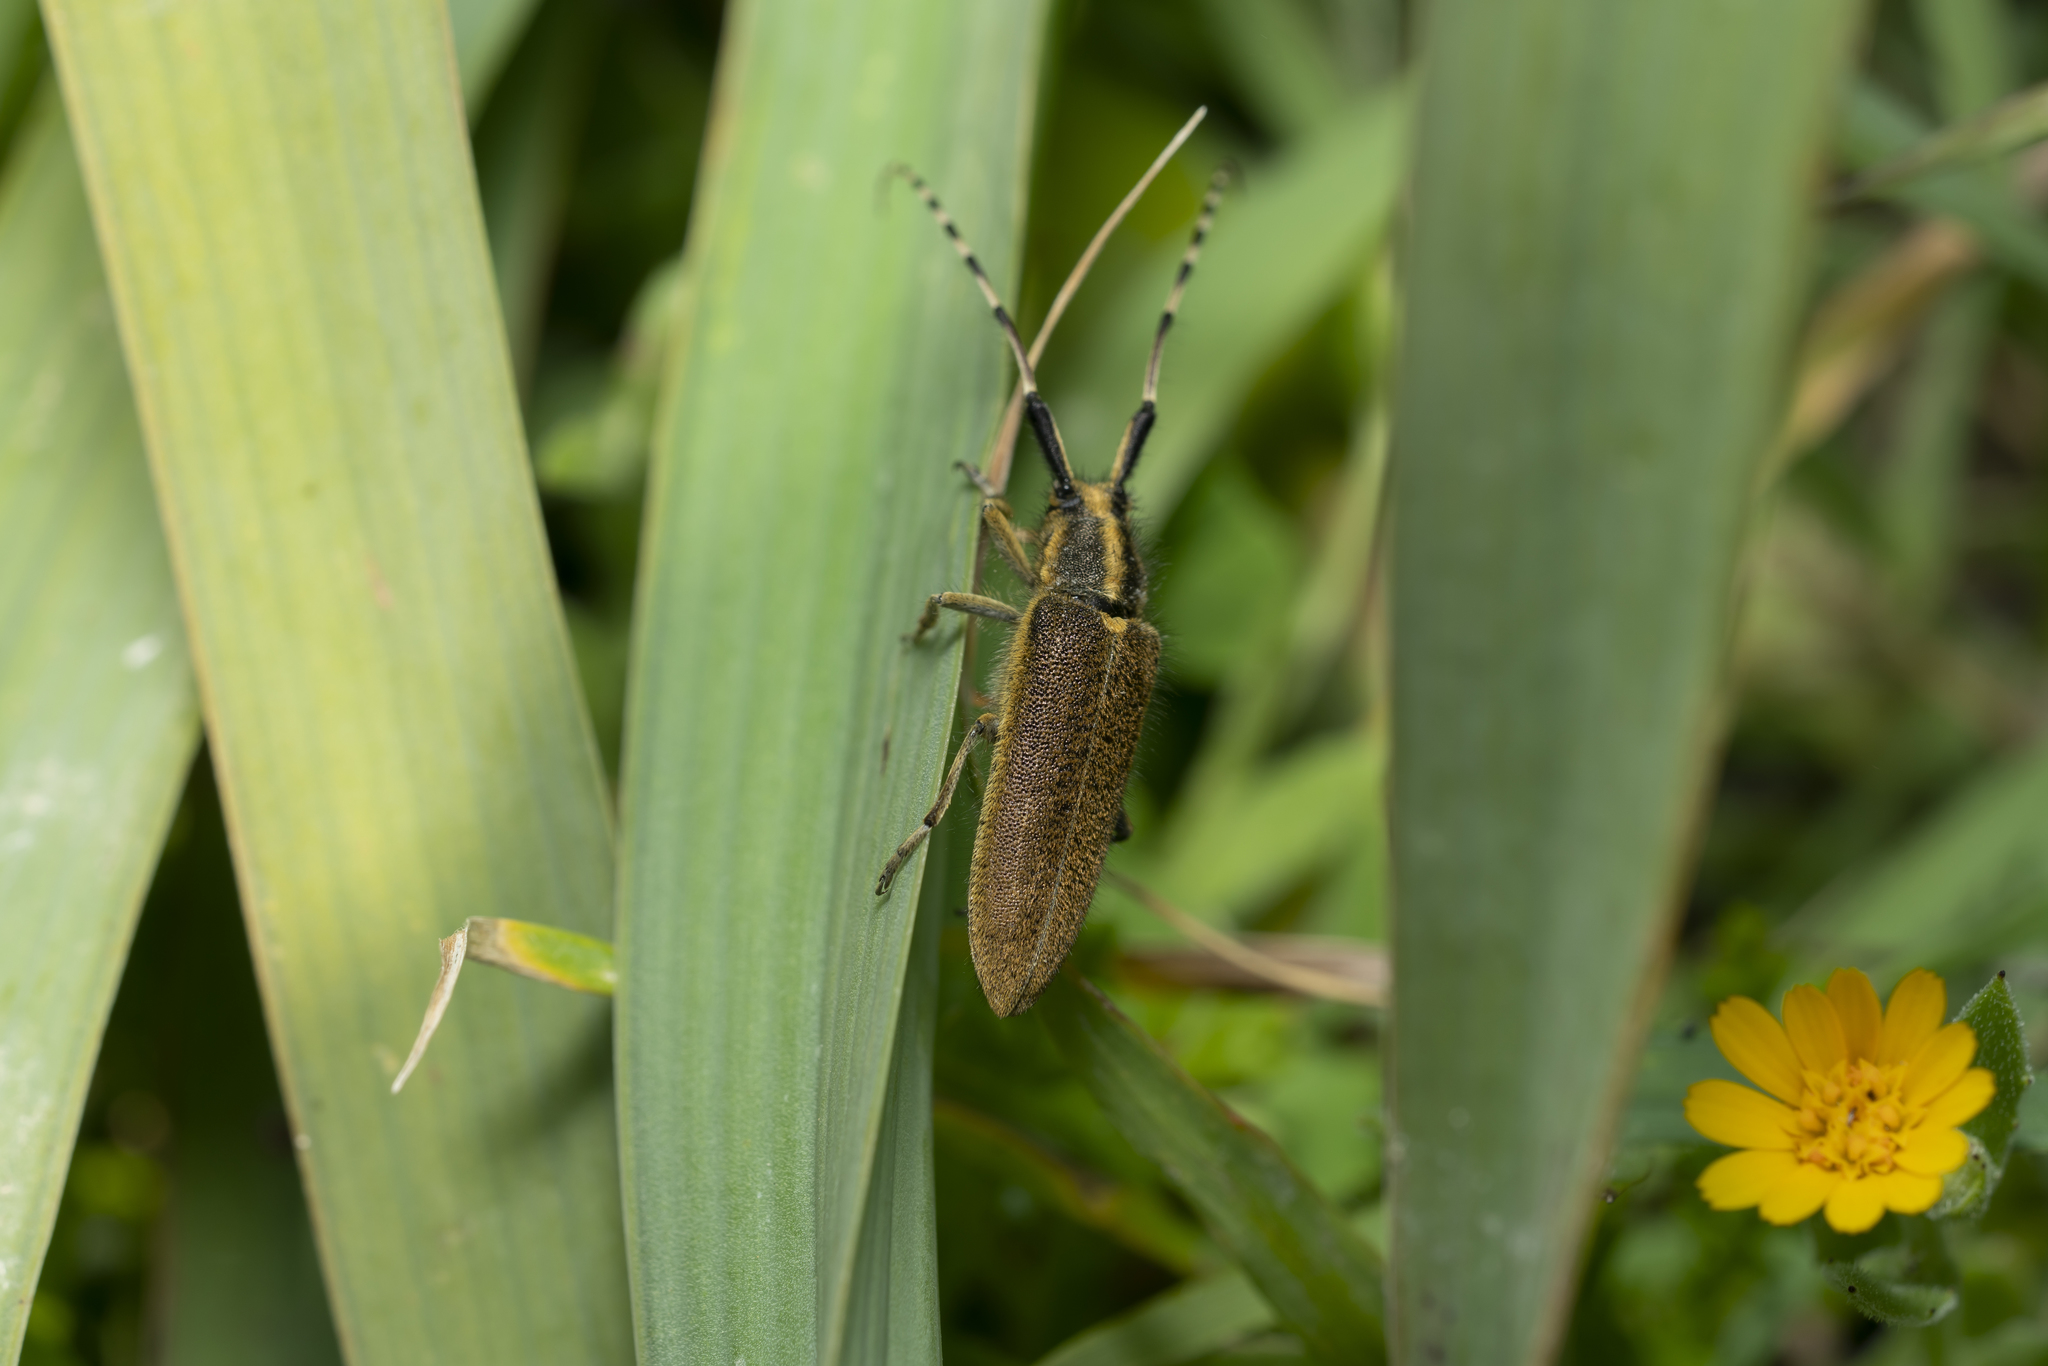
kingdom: Animalia
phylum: Arthropoda
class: Insecta
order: Coleoptera
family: Cerambycidae
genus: Agapanthia
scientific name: Agapanthia asphodeli
